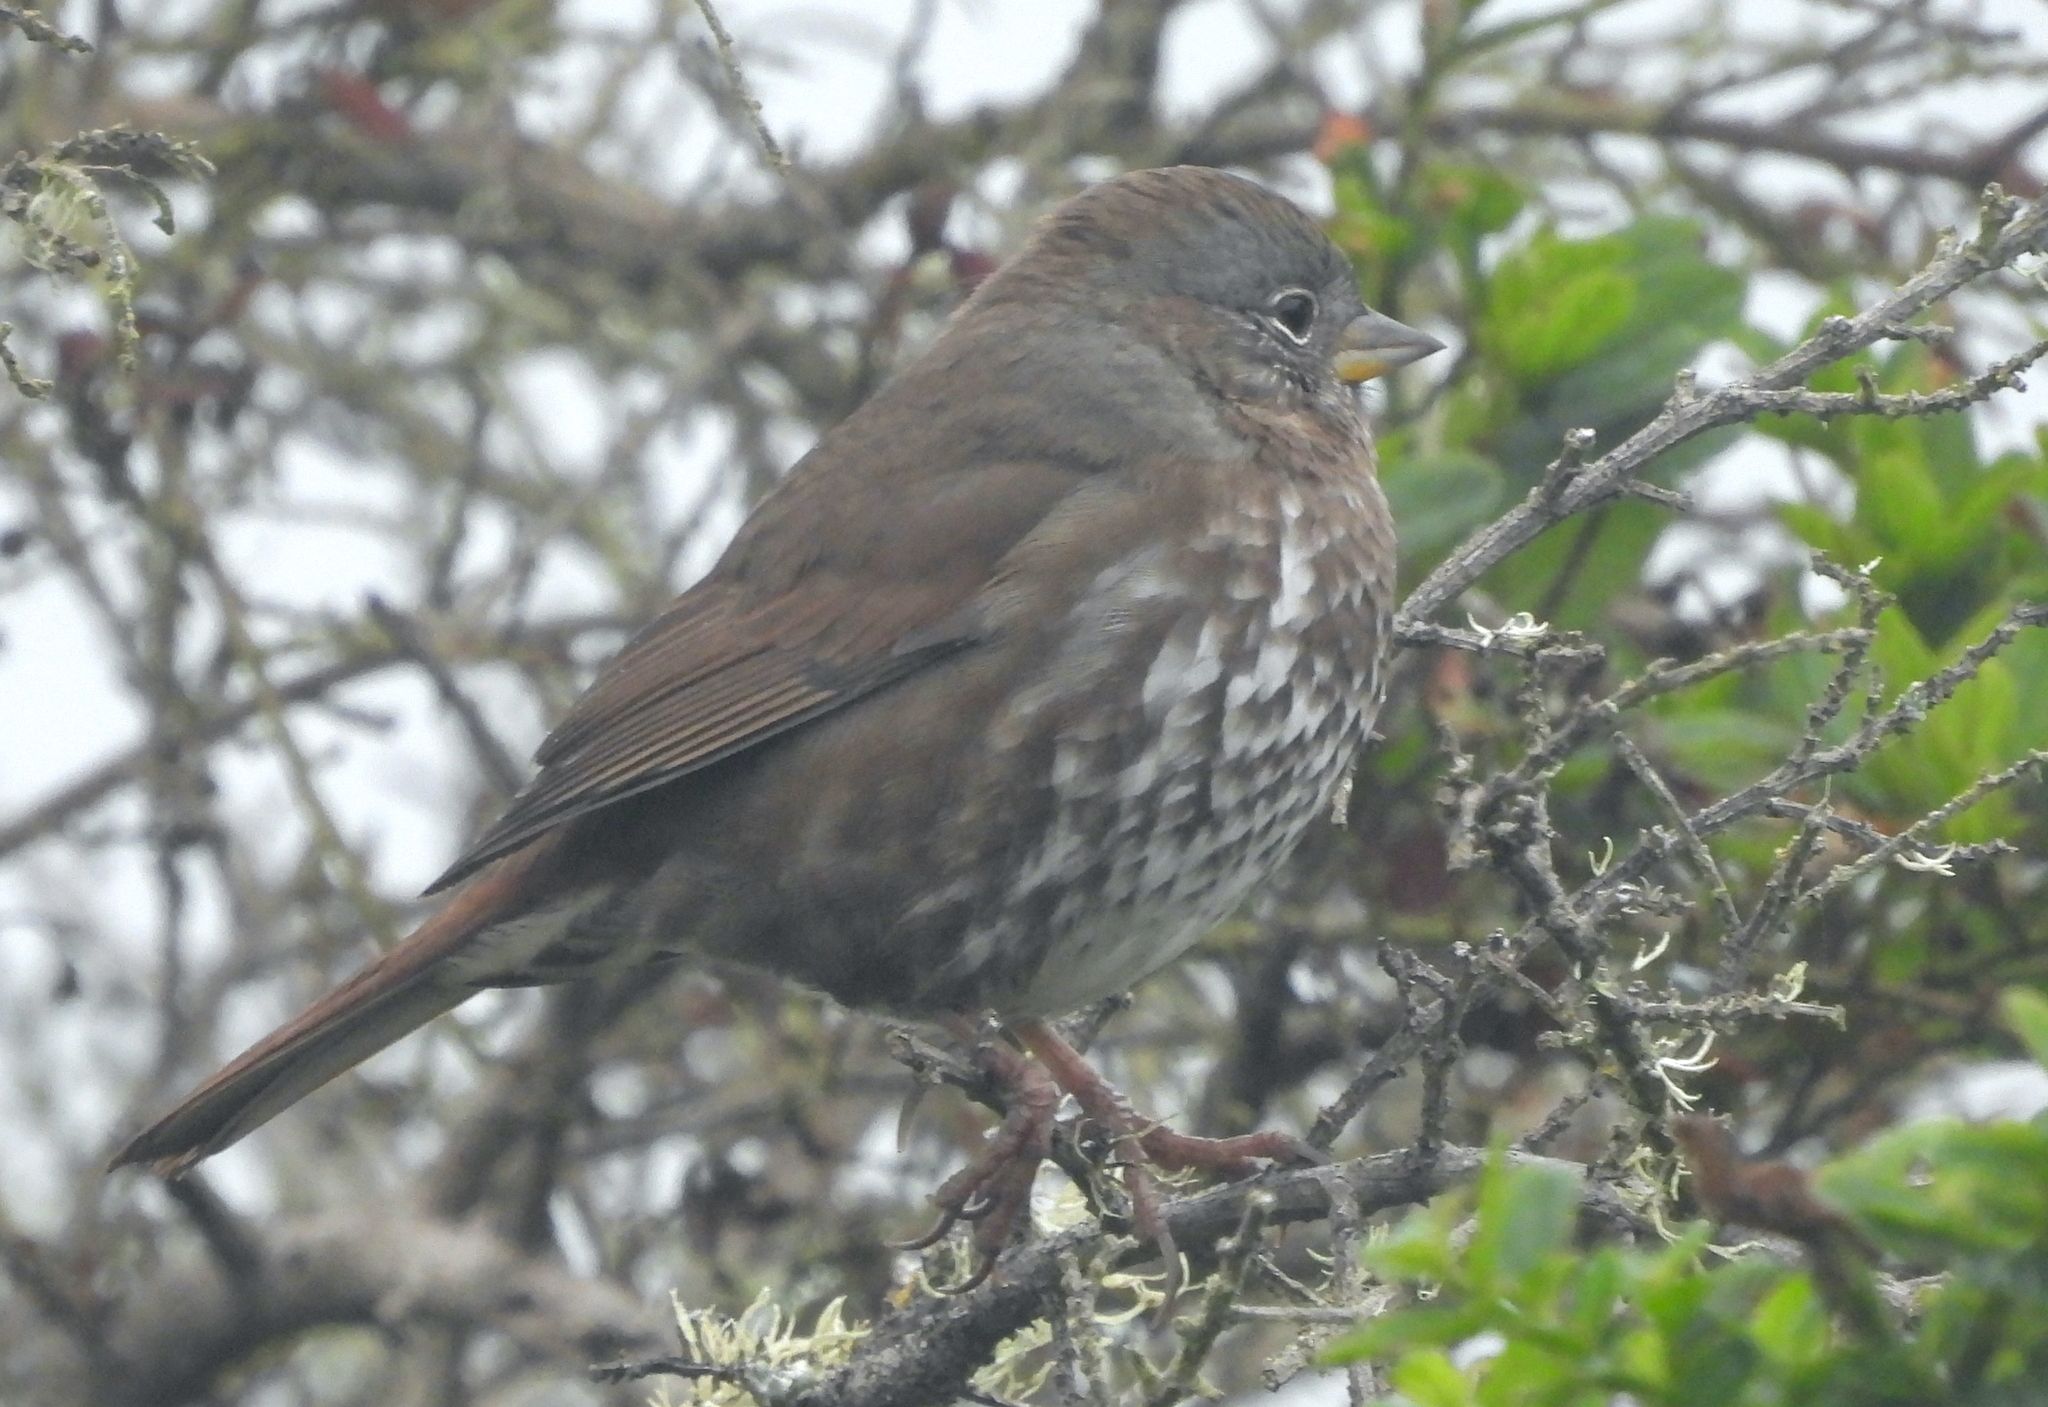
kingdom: Animalia
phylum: Chordata
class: Aves
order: Passeriformes
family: Passerellidae
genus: Passerella
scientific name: Passerella iliaca
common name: Fox sparrow
